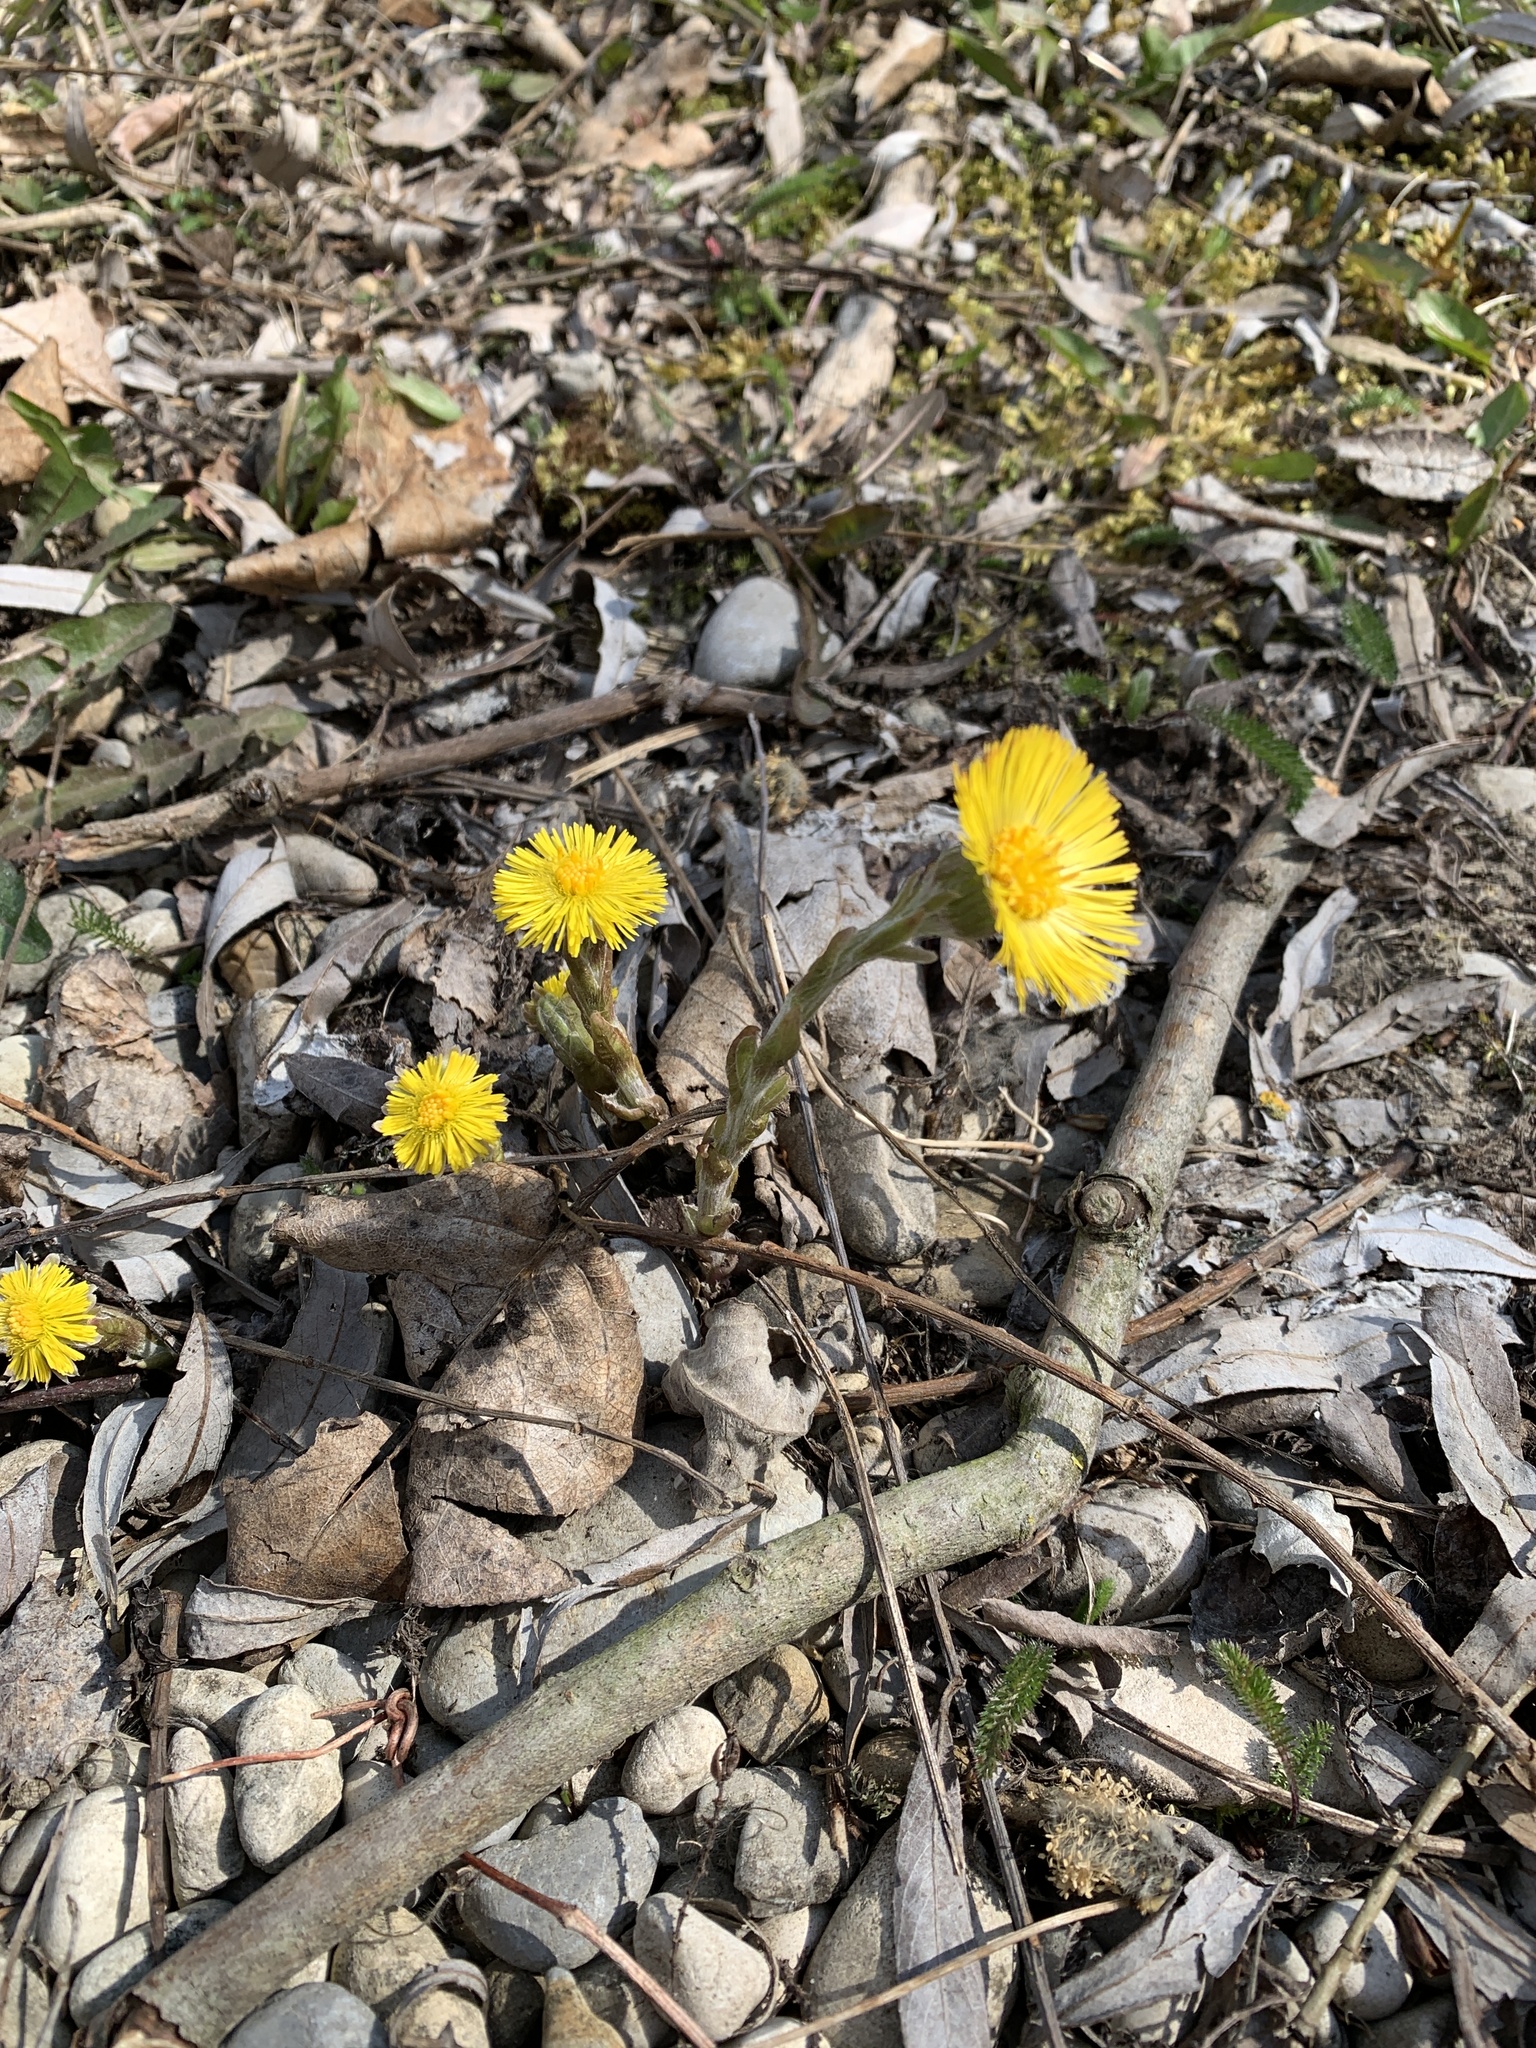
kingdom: Plantae
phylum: Tracheophyta
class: Magnoliopsida
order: Asterales
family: Asteraceae
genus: Tussilago
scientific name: Tussilago farfara
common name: Coltsfoot
